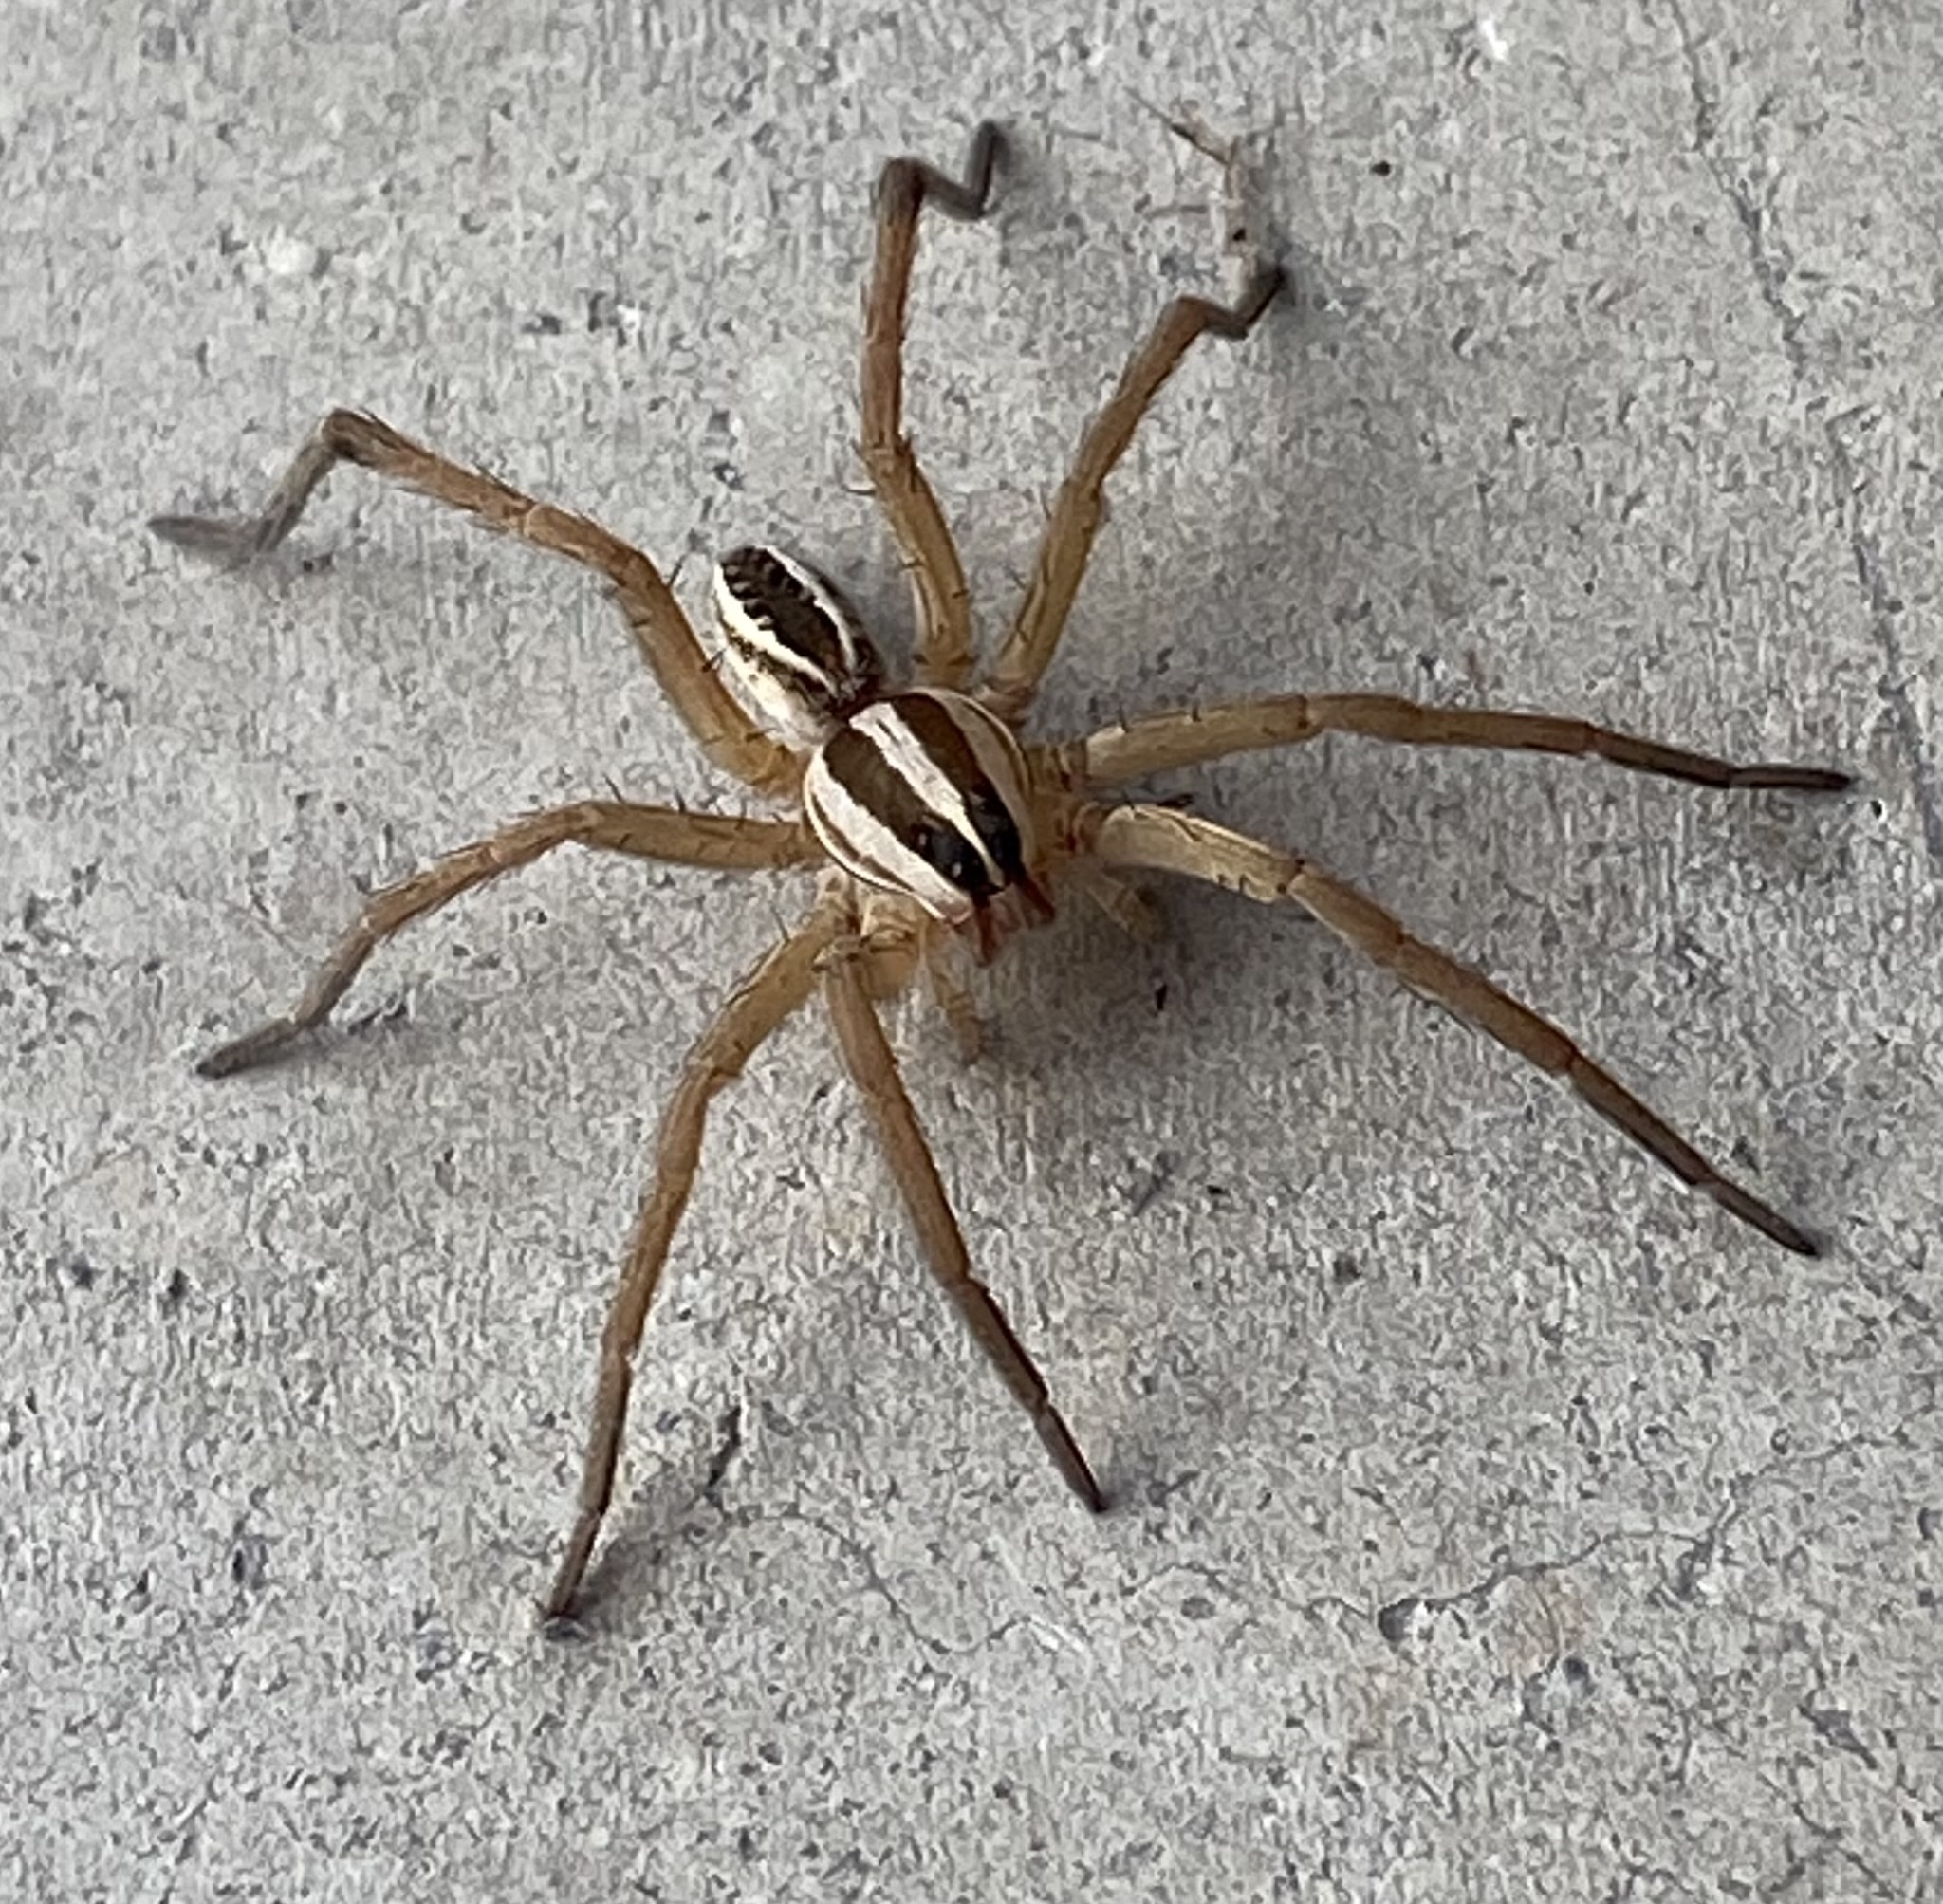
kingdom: Animalia
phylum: Arthropoda
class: Arachnida
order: Araneae
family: Lycosidae
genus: Rabidosa
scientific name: Rabidosa rabida
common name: Rabid wolf spider
